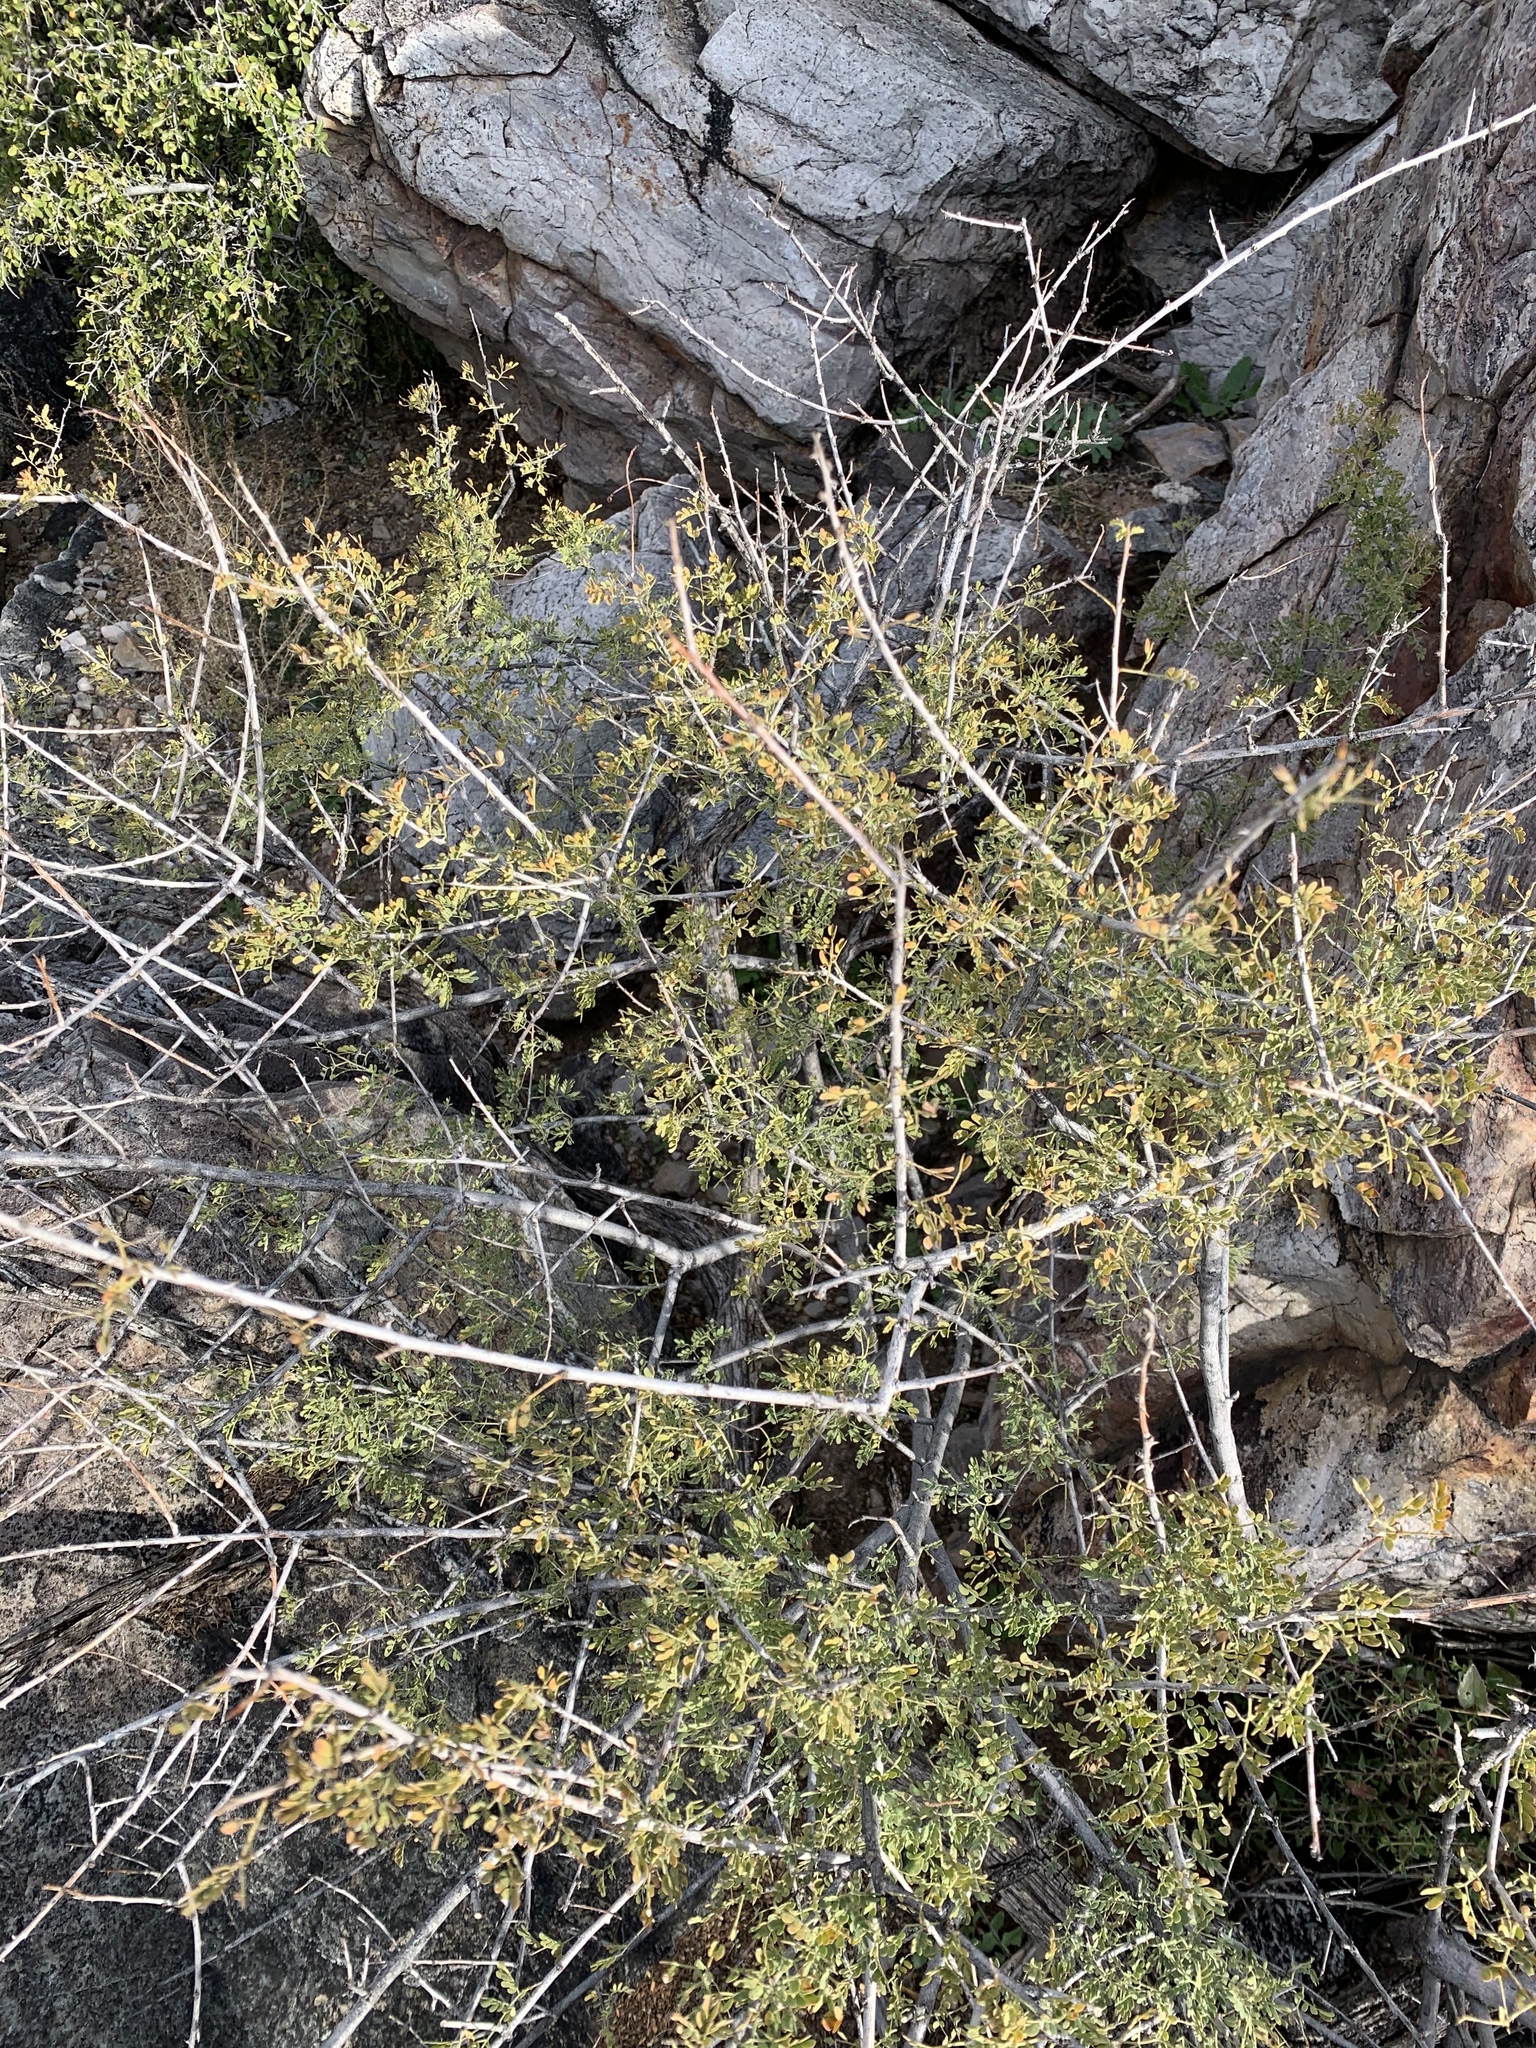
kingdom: Plantae
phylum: Tracheophyta
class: Magnoliopsida
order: Fabales
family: Fabaceae
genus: Senegalia
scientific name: Senegalia greggii
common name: Texas-mimosa
